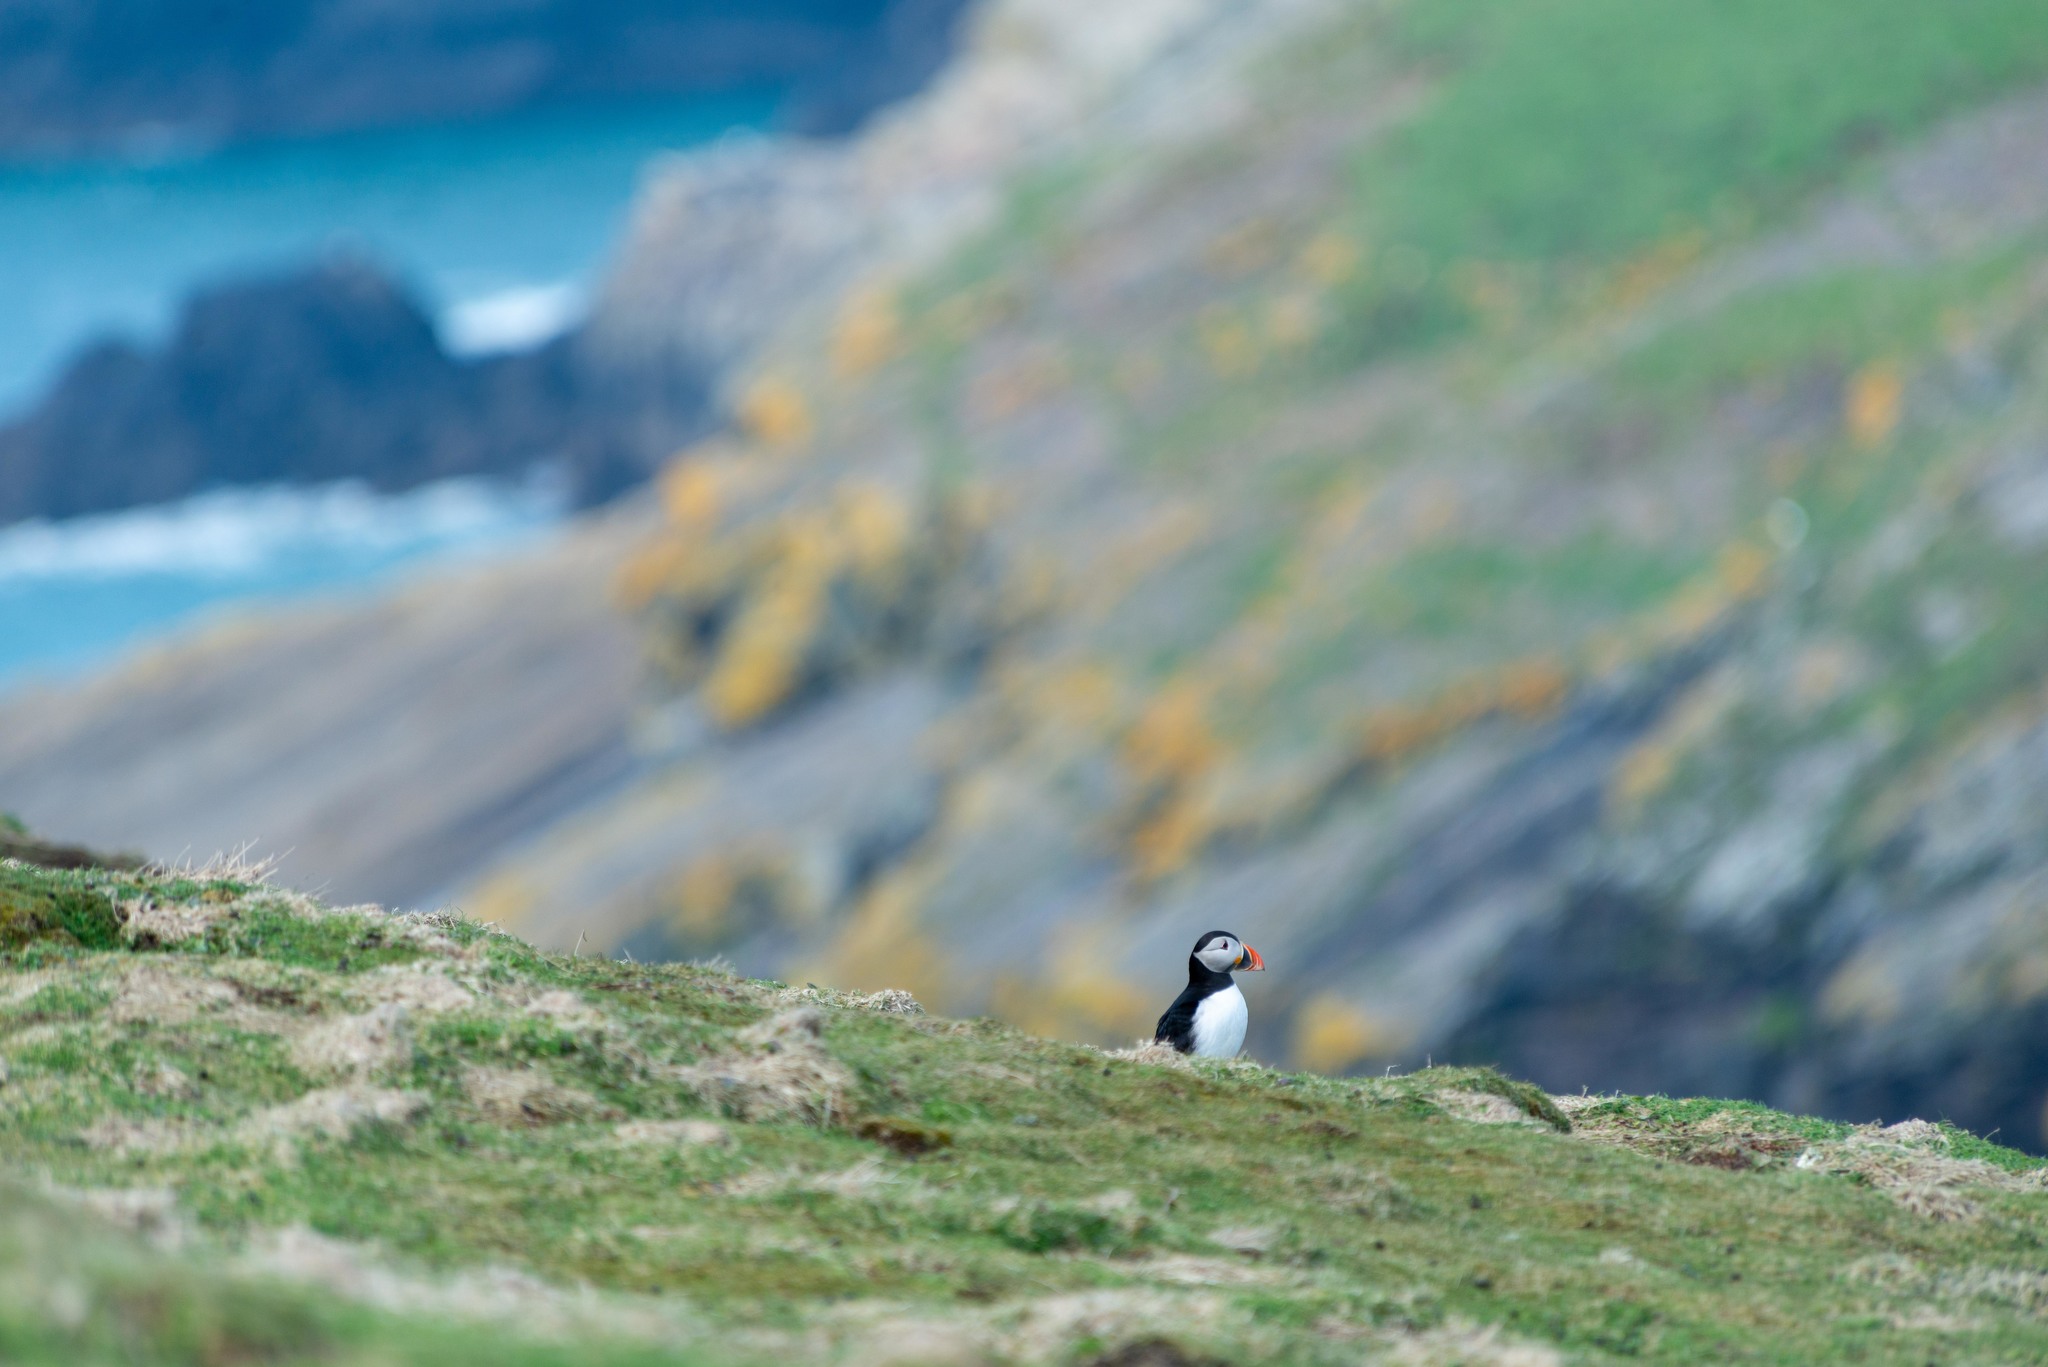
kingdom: Animalia
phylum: Chordata
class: Aves
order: Charadriiformes
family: Alcidae
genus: Fratercula
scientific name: Fratercula arctica
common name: Atlantic puffin
